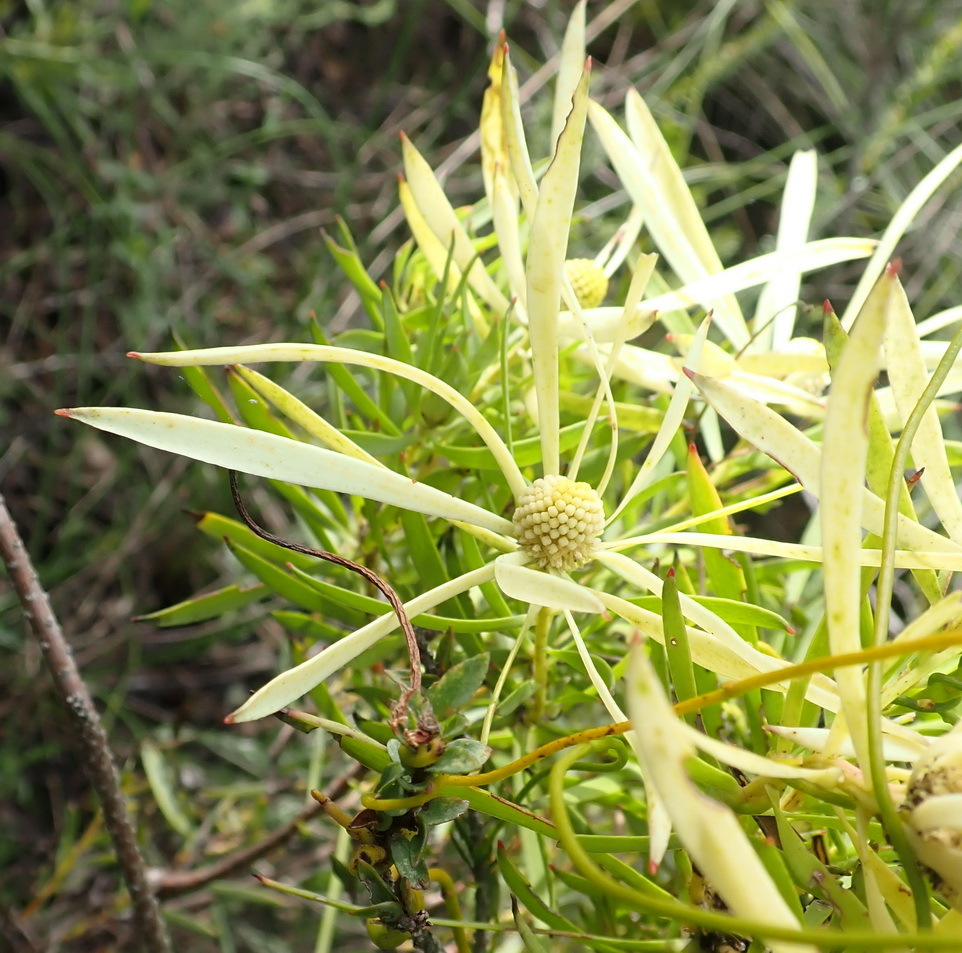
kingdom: Plantae
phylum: Tracheophyta
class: Magnoliopsida
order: Proteales
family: Proteaceae
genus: Leucadendron
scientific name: Leucadendron salignum
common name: Common sunshine conebush
